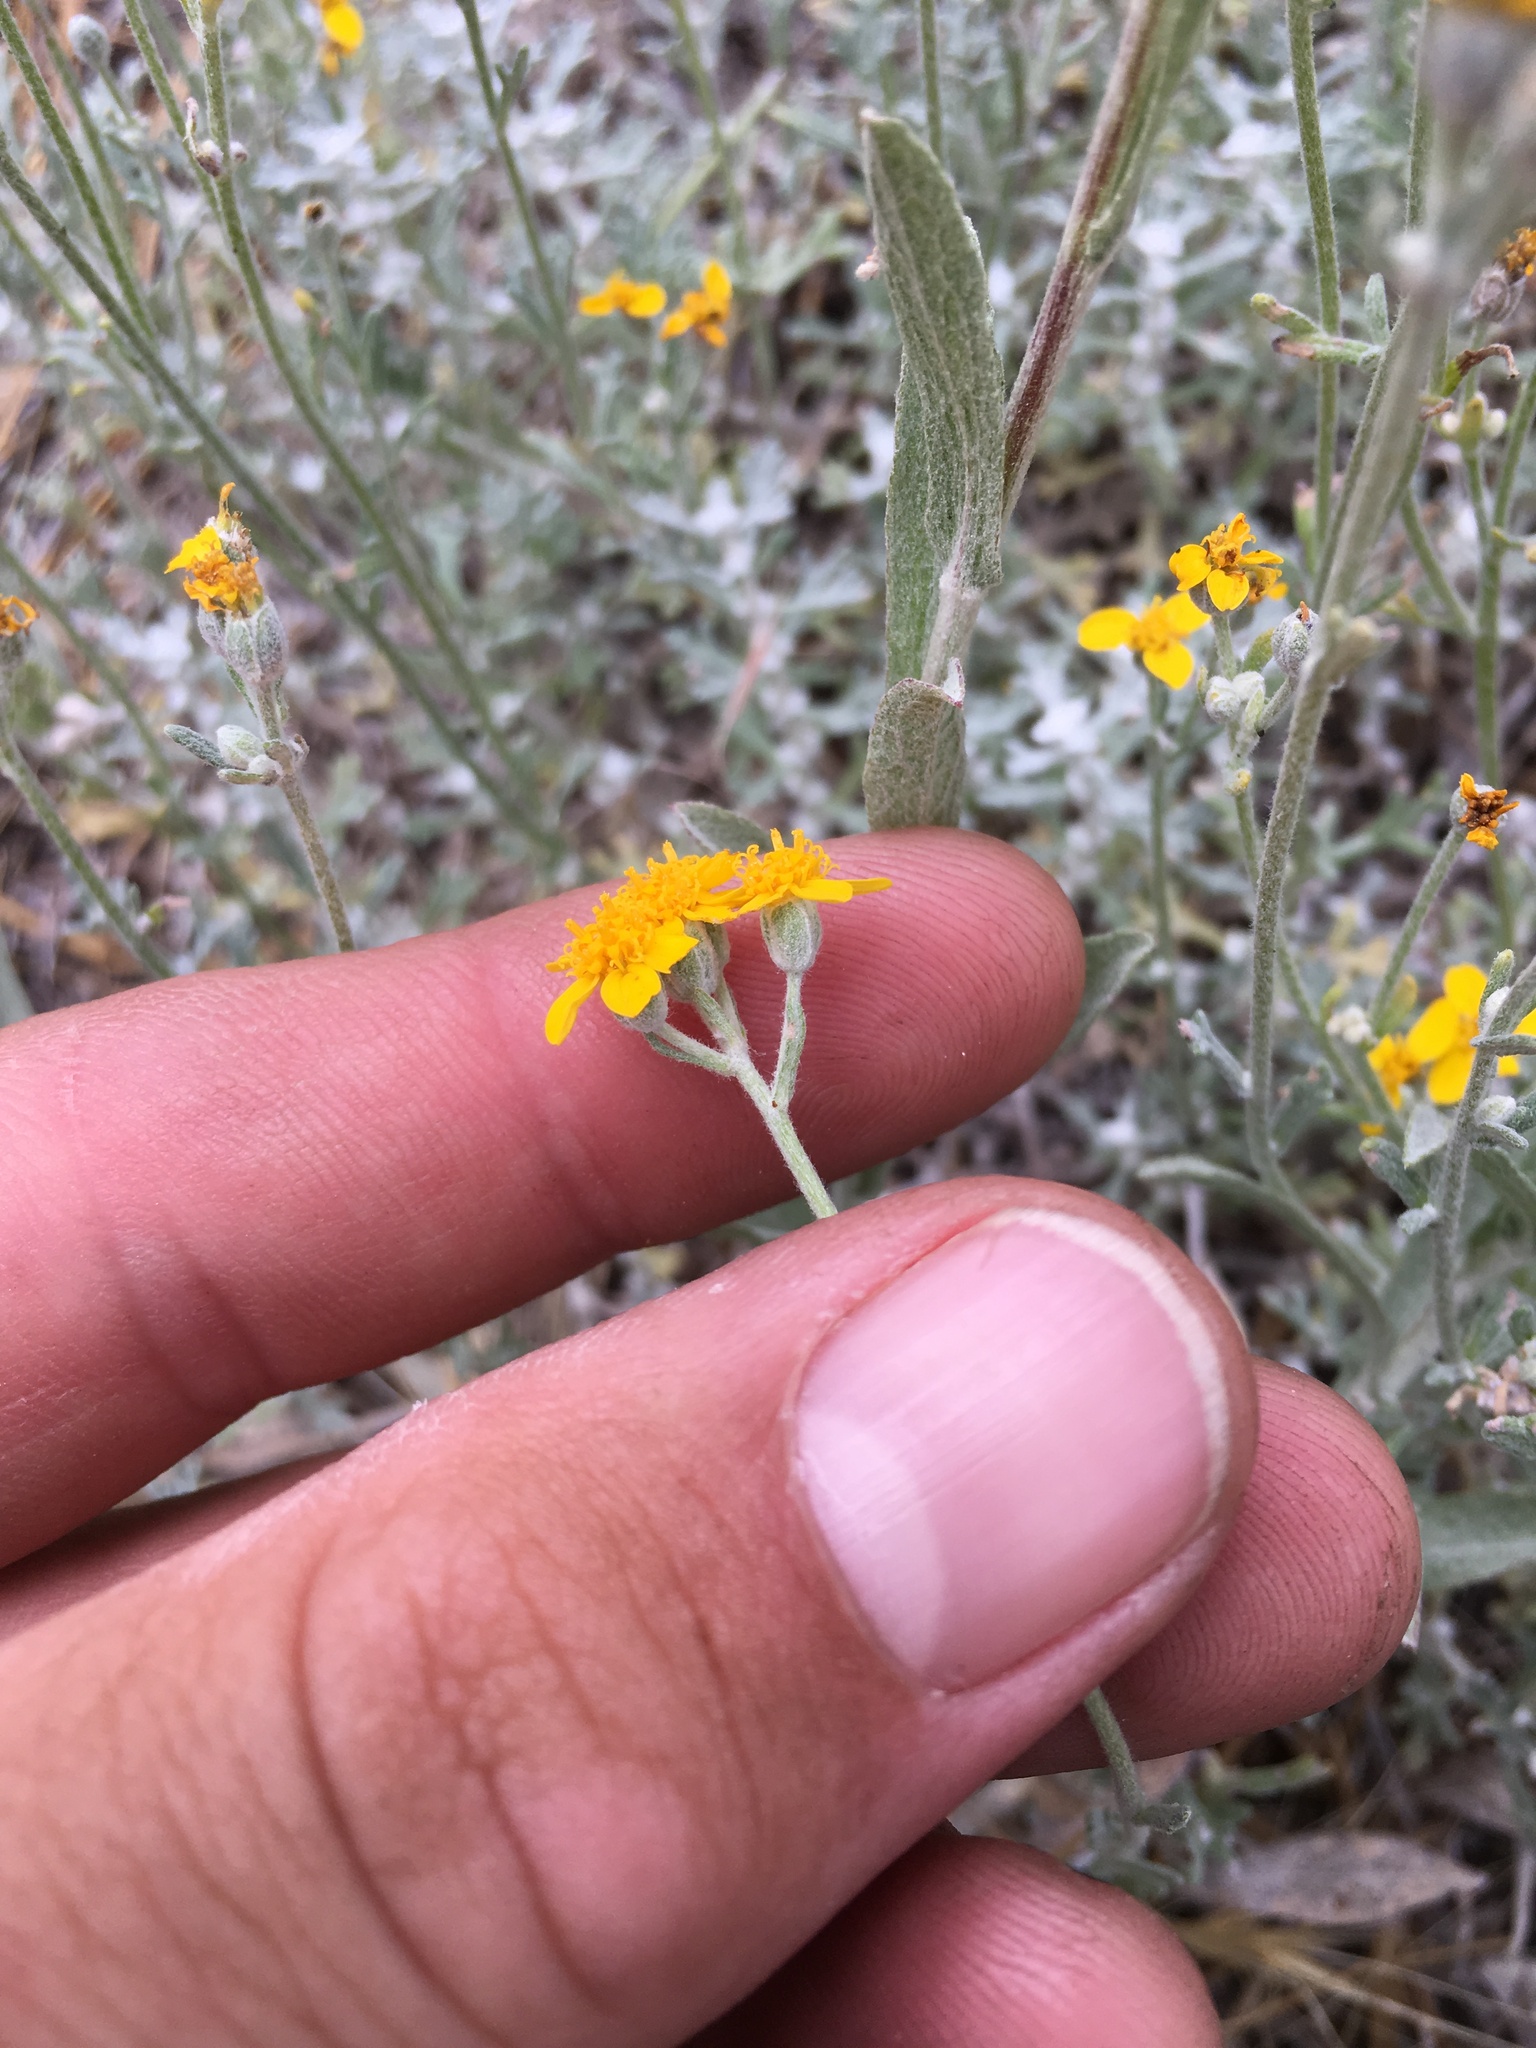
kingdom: Plantae
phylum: Tracheophyta
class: Magnoliopsida
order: Asterales
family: Asteraceae
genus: Eriophyllum
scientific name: Eriophyllum confertiflorum
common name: Golden-yarrow
